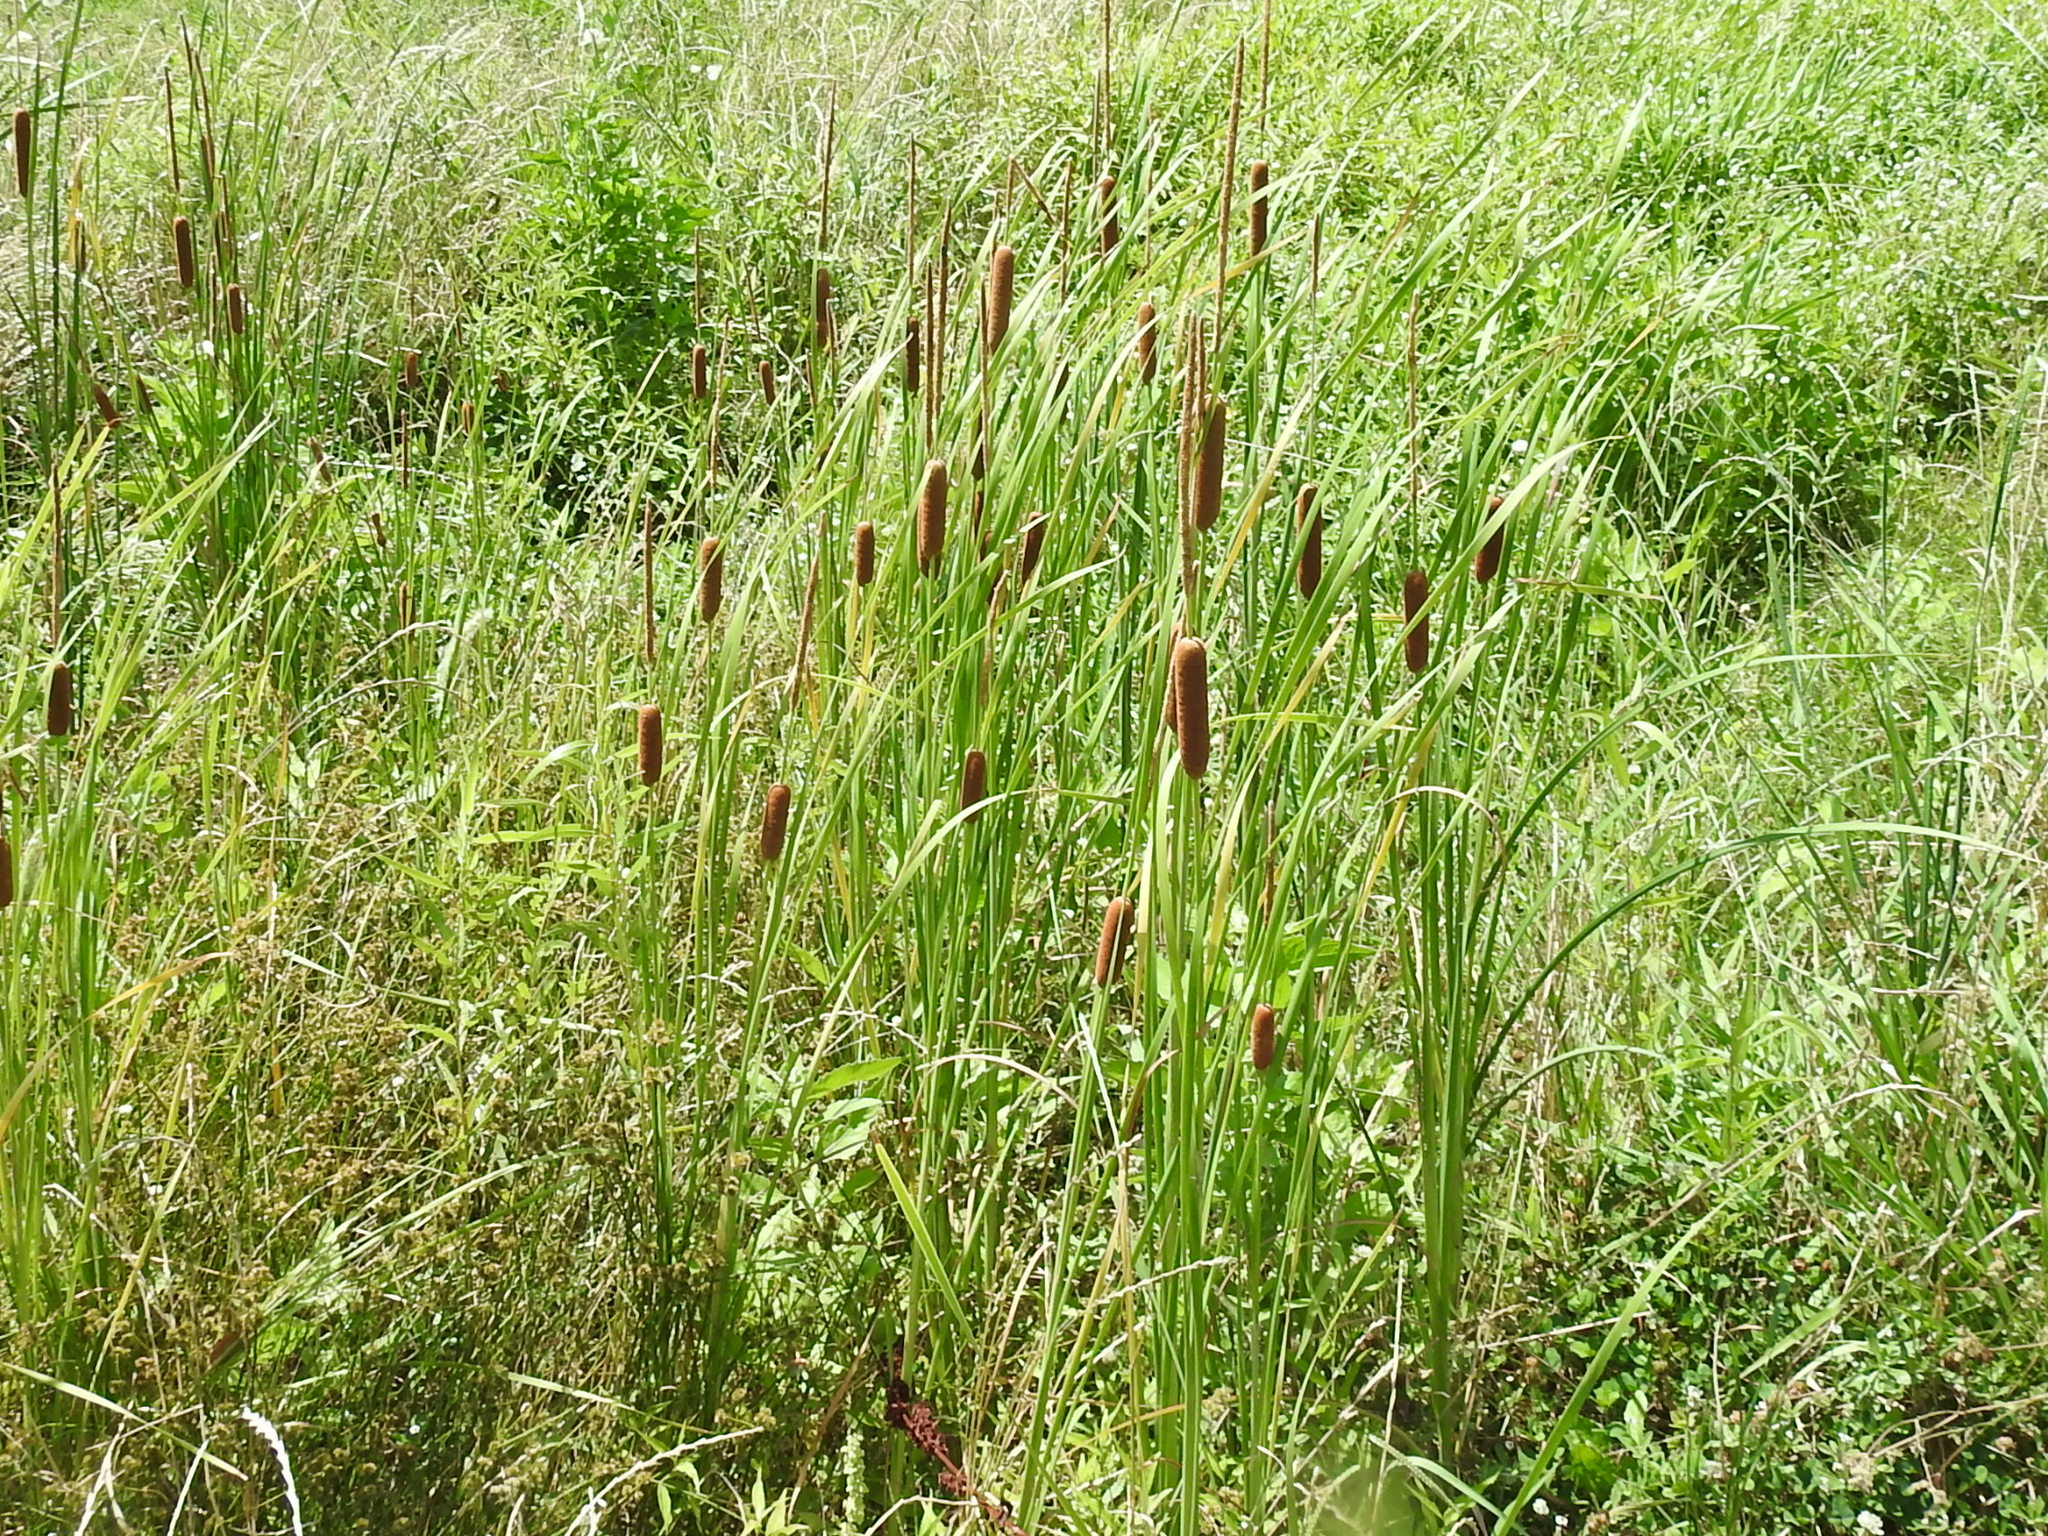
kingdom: Plantae
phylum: Tracheophyta
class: Liliopsida
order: Poales
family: Typhaceae
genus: Typha
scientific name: Typha domingensis
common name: Southern cattail
